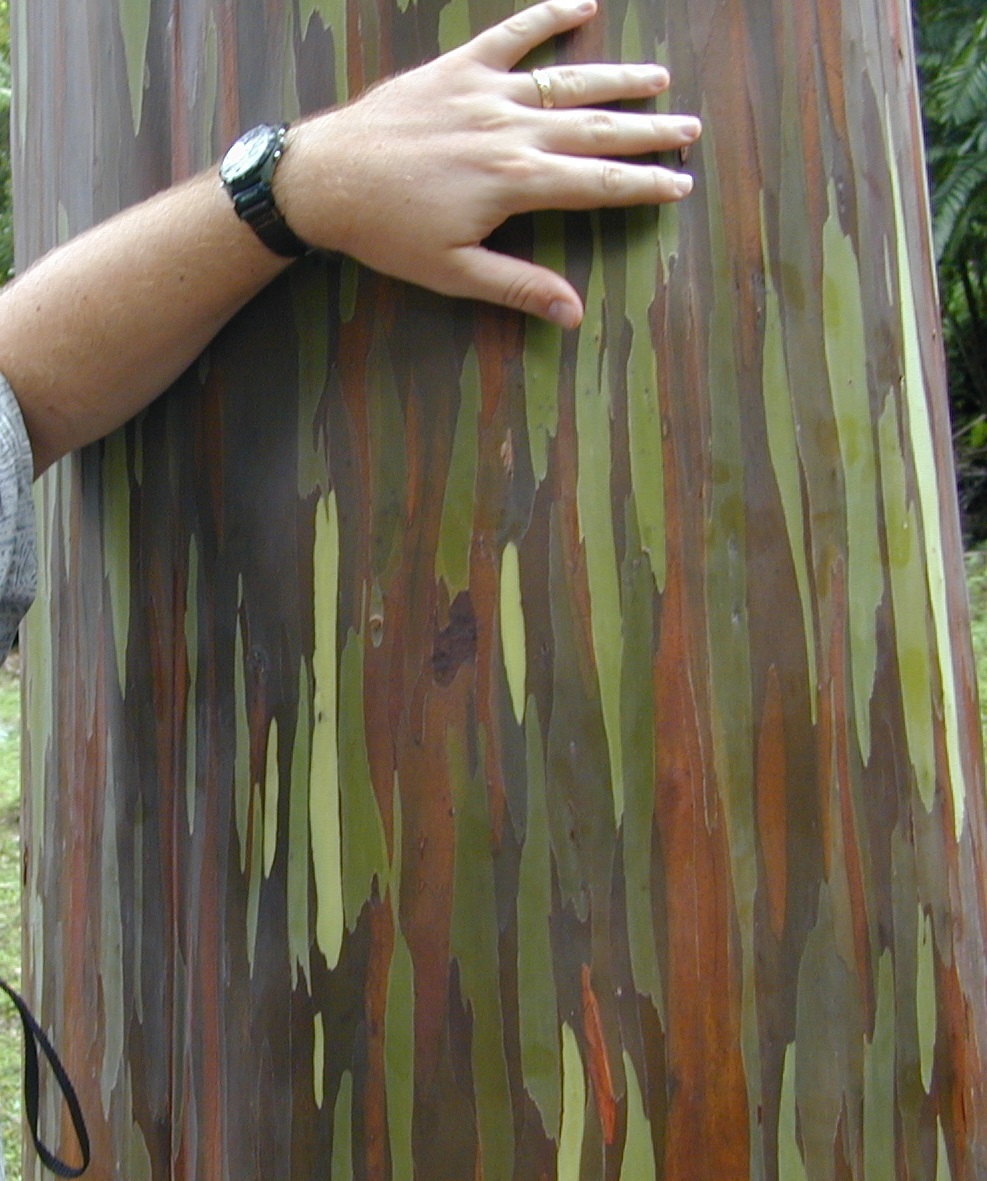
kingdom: Plantae
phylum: Tracheophyta
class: Magnoliopsida
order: Myrtales
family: Myrtaceae
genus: Eucalyptus
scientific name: Eucalyptus deglupta
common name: Mindanao gum
